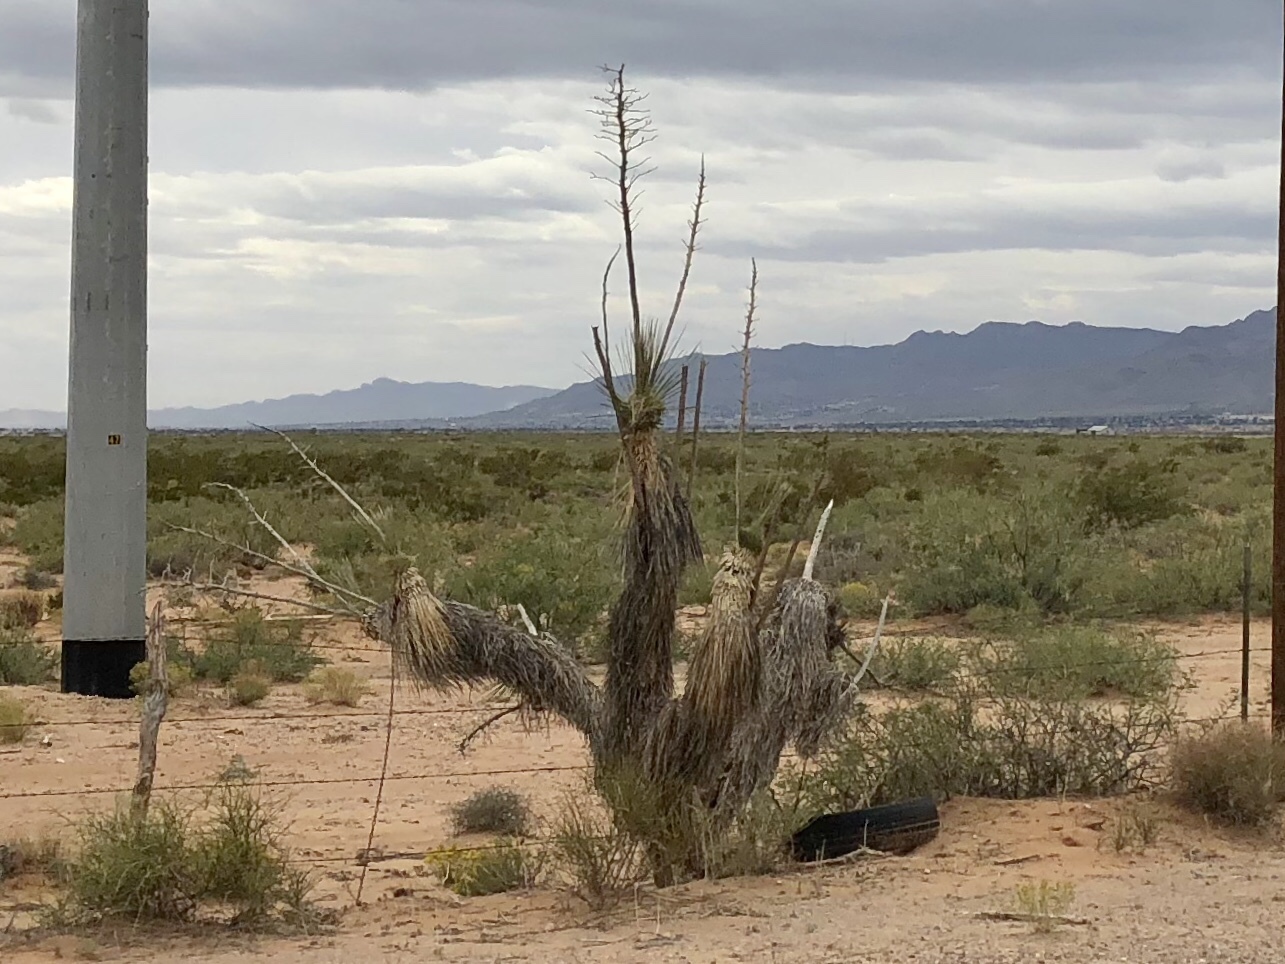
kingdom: Plantae
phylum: Tracheophyta
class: Liliopsida
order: Asparagales
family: Asparagaceae
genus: Yucca
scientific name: Yucca elata
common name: Palmella
